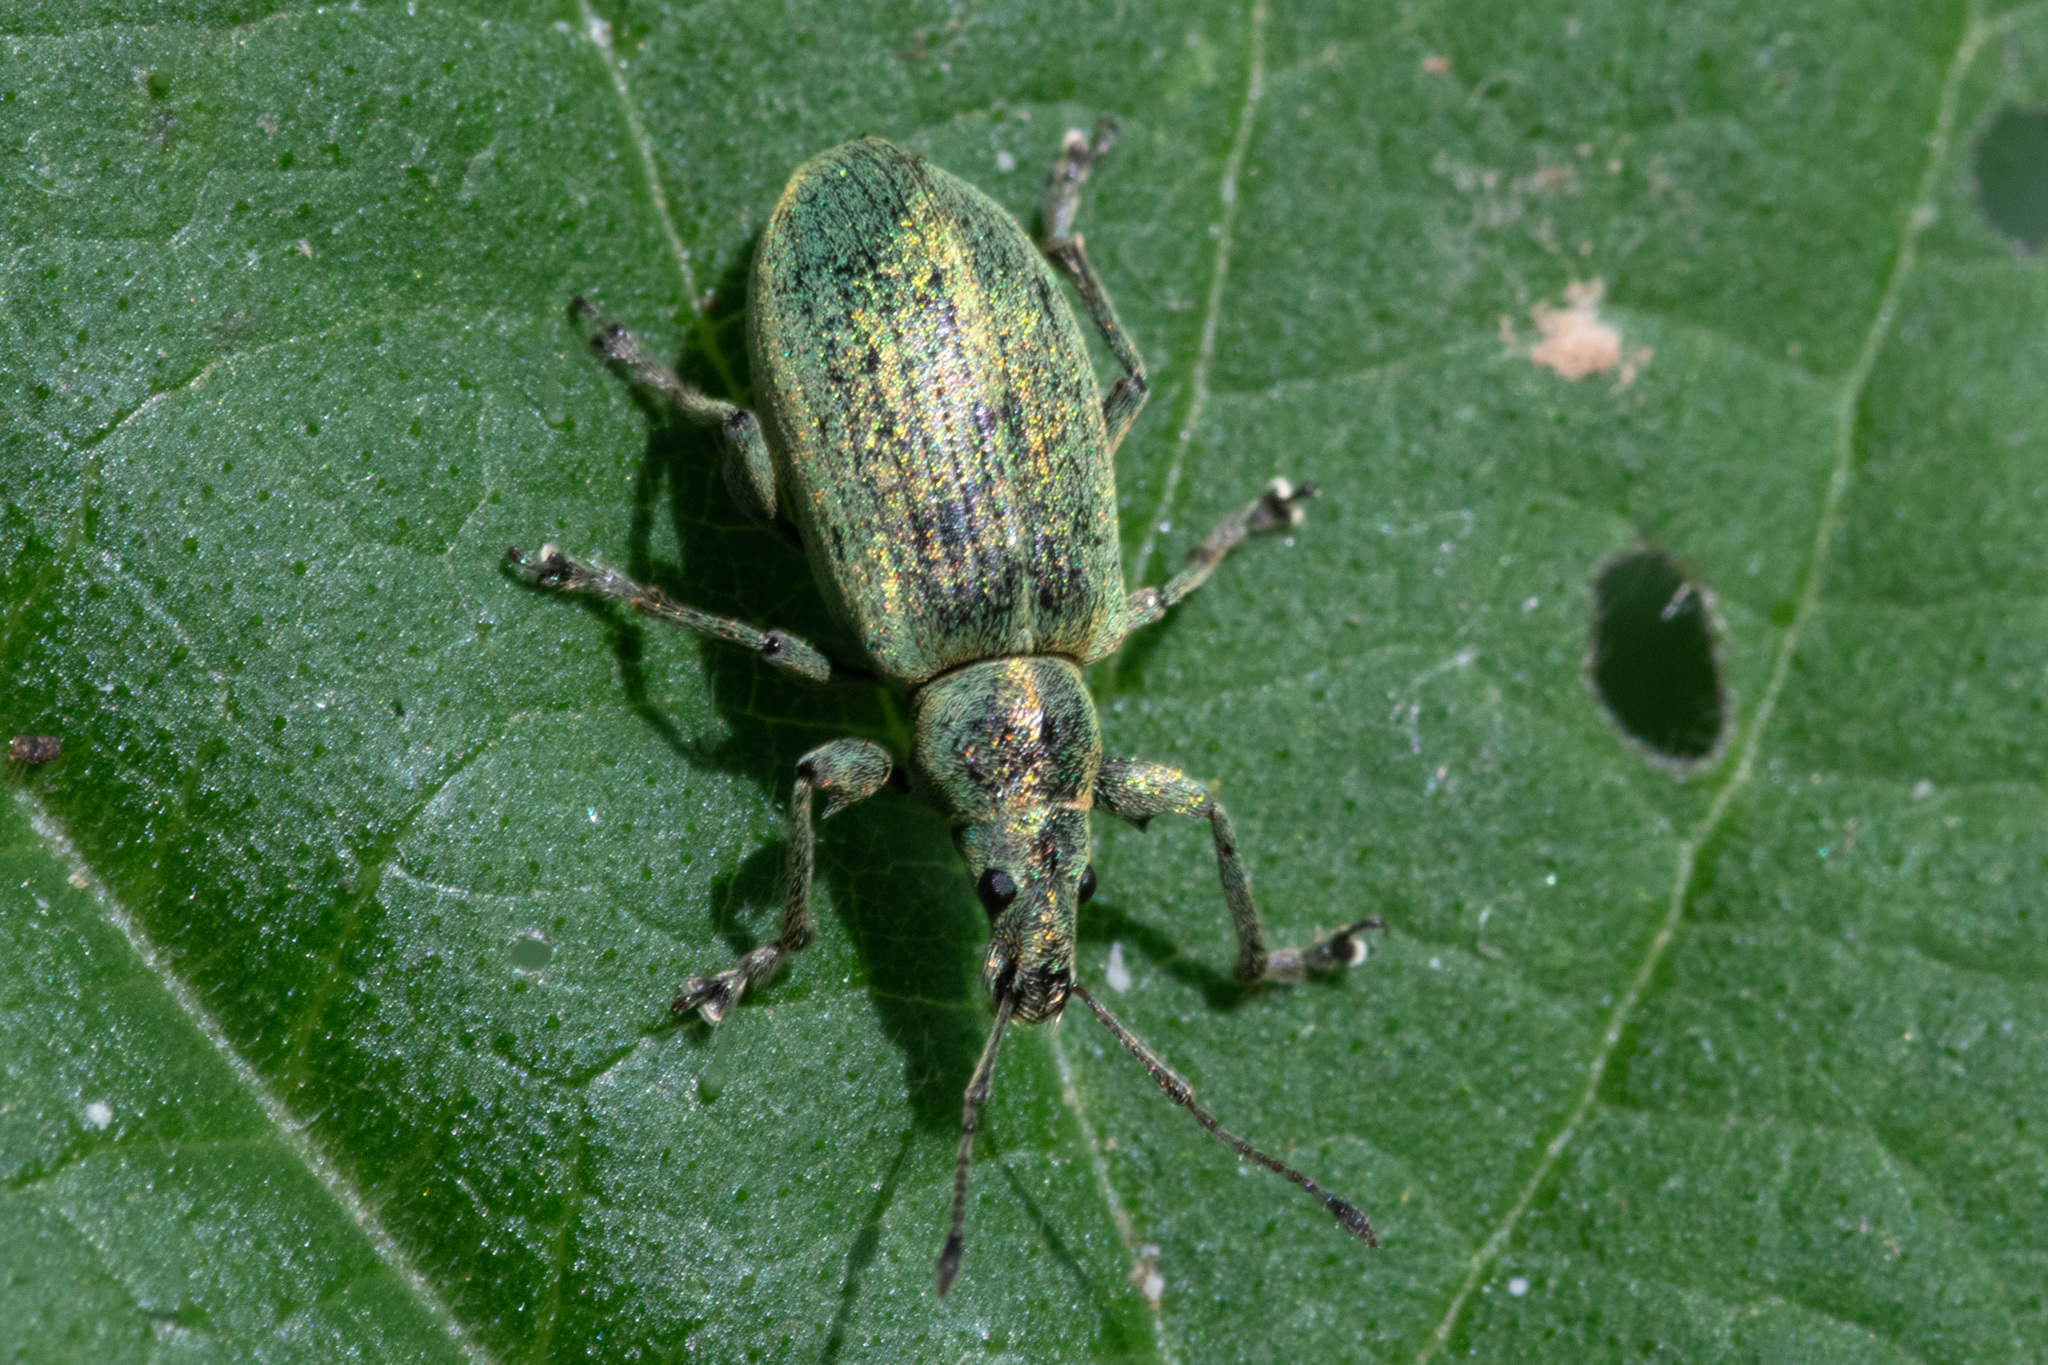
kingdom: Animalia
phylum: Arthropoda
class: Insecta
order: Coleoptera
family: Curculionidae
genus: Phyllobius
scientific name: Phyllobius pomaceus
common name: Green nettle weevil
